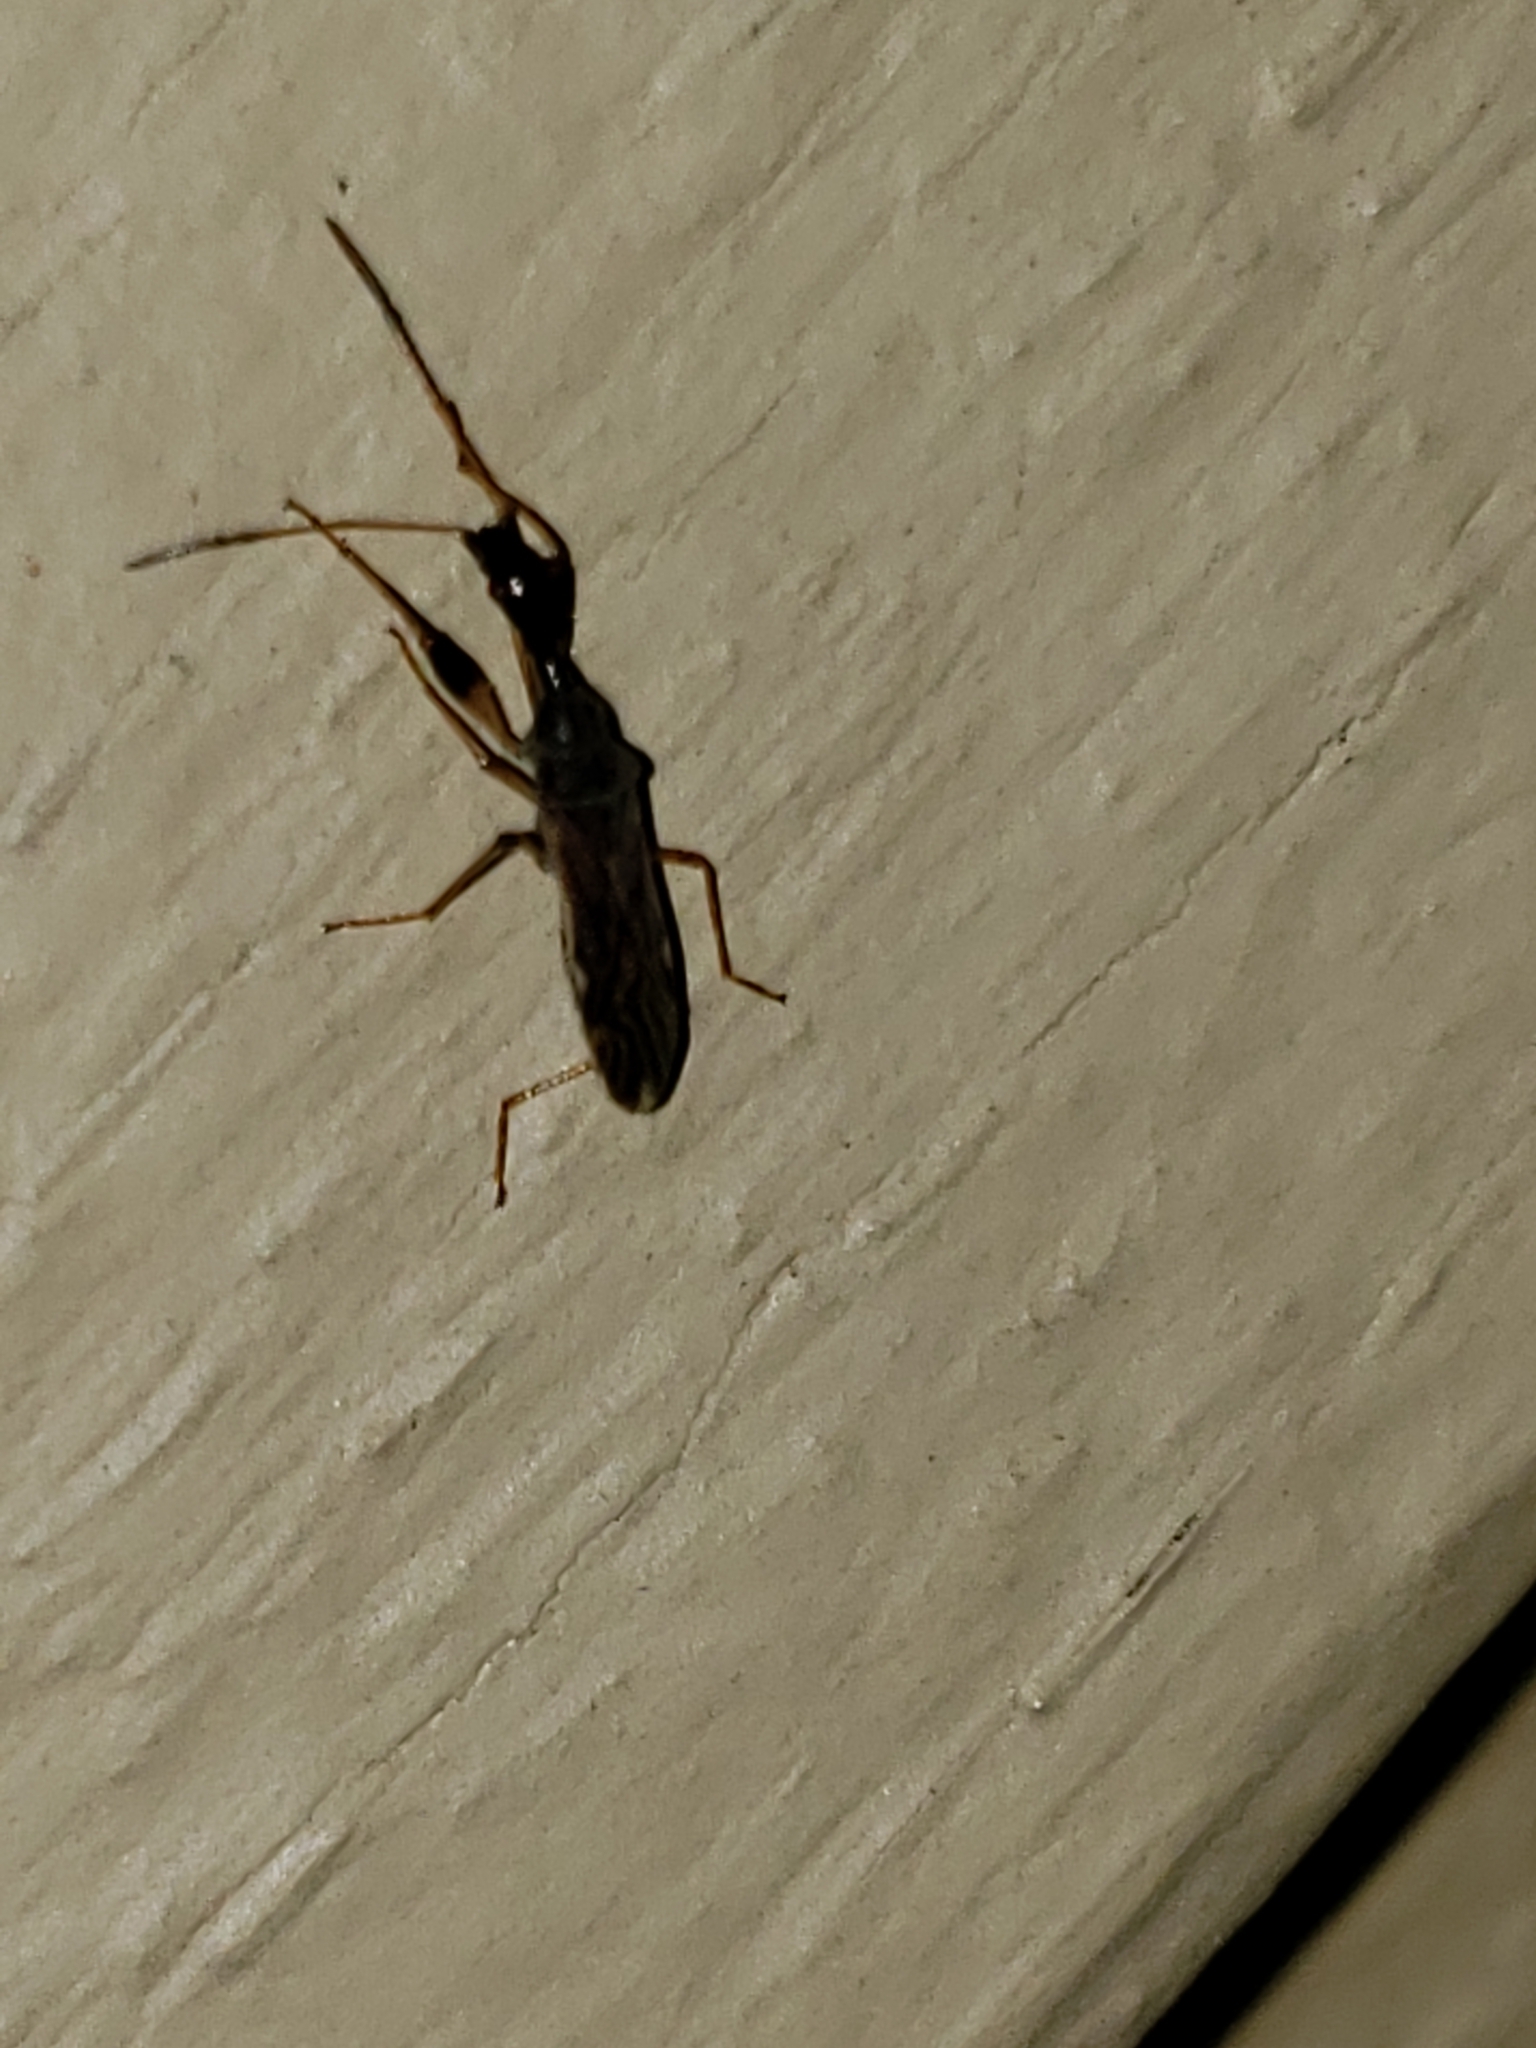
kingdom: Animalia
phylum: Arthropoda
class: Insecta
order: Hemiptera
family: Rhyparochromidae
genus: Myodocha
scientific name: Myodocha serripes
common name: Long-necked seed bug
